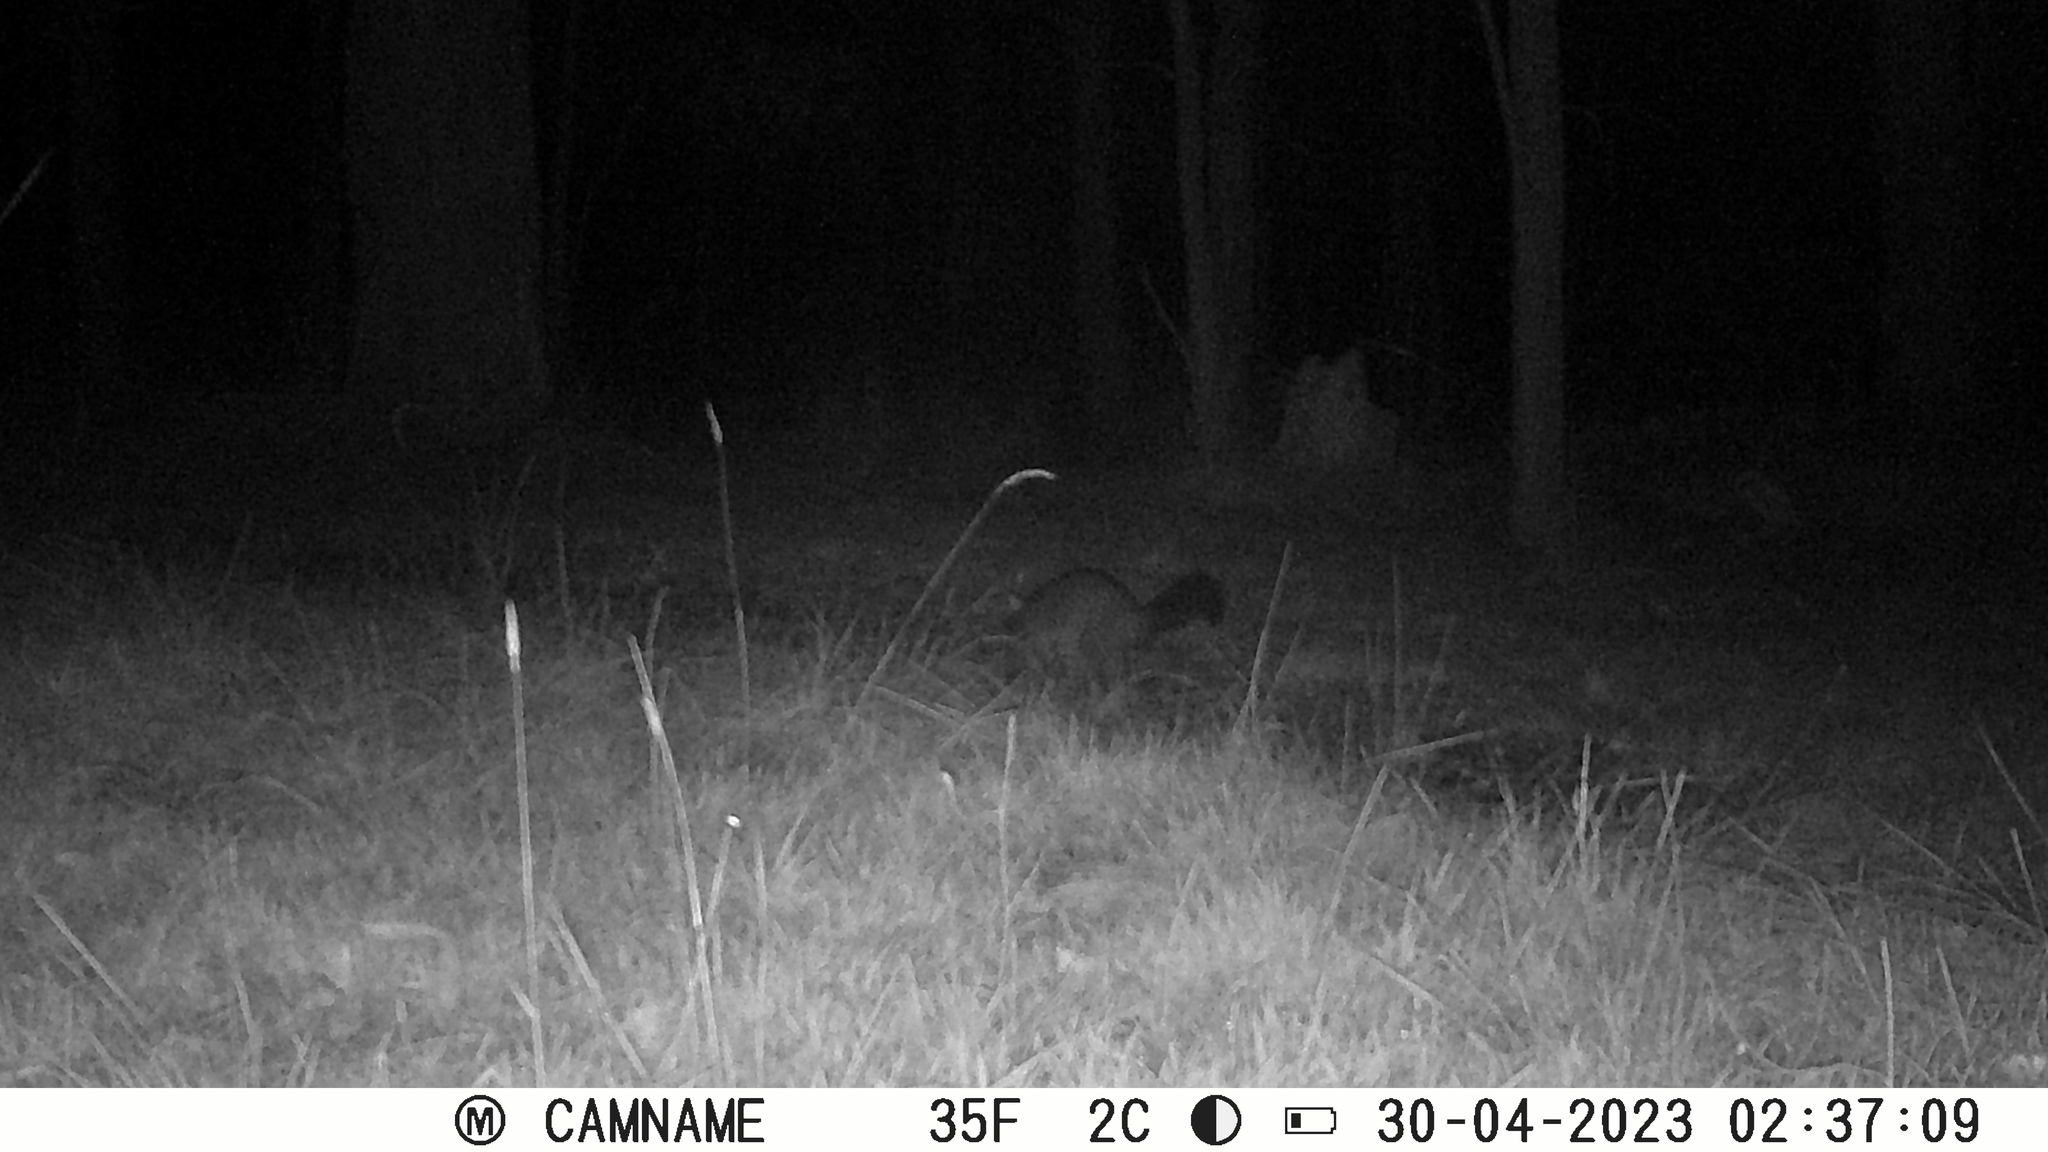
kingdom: Animalia
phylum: Chordata
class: Mammalia
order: Diprotodontia
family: Phalangeridae
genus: Trichosurus
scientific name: Trichosurus vulpecula
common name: Common brushtail
